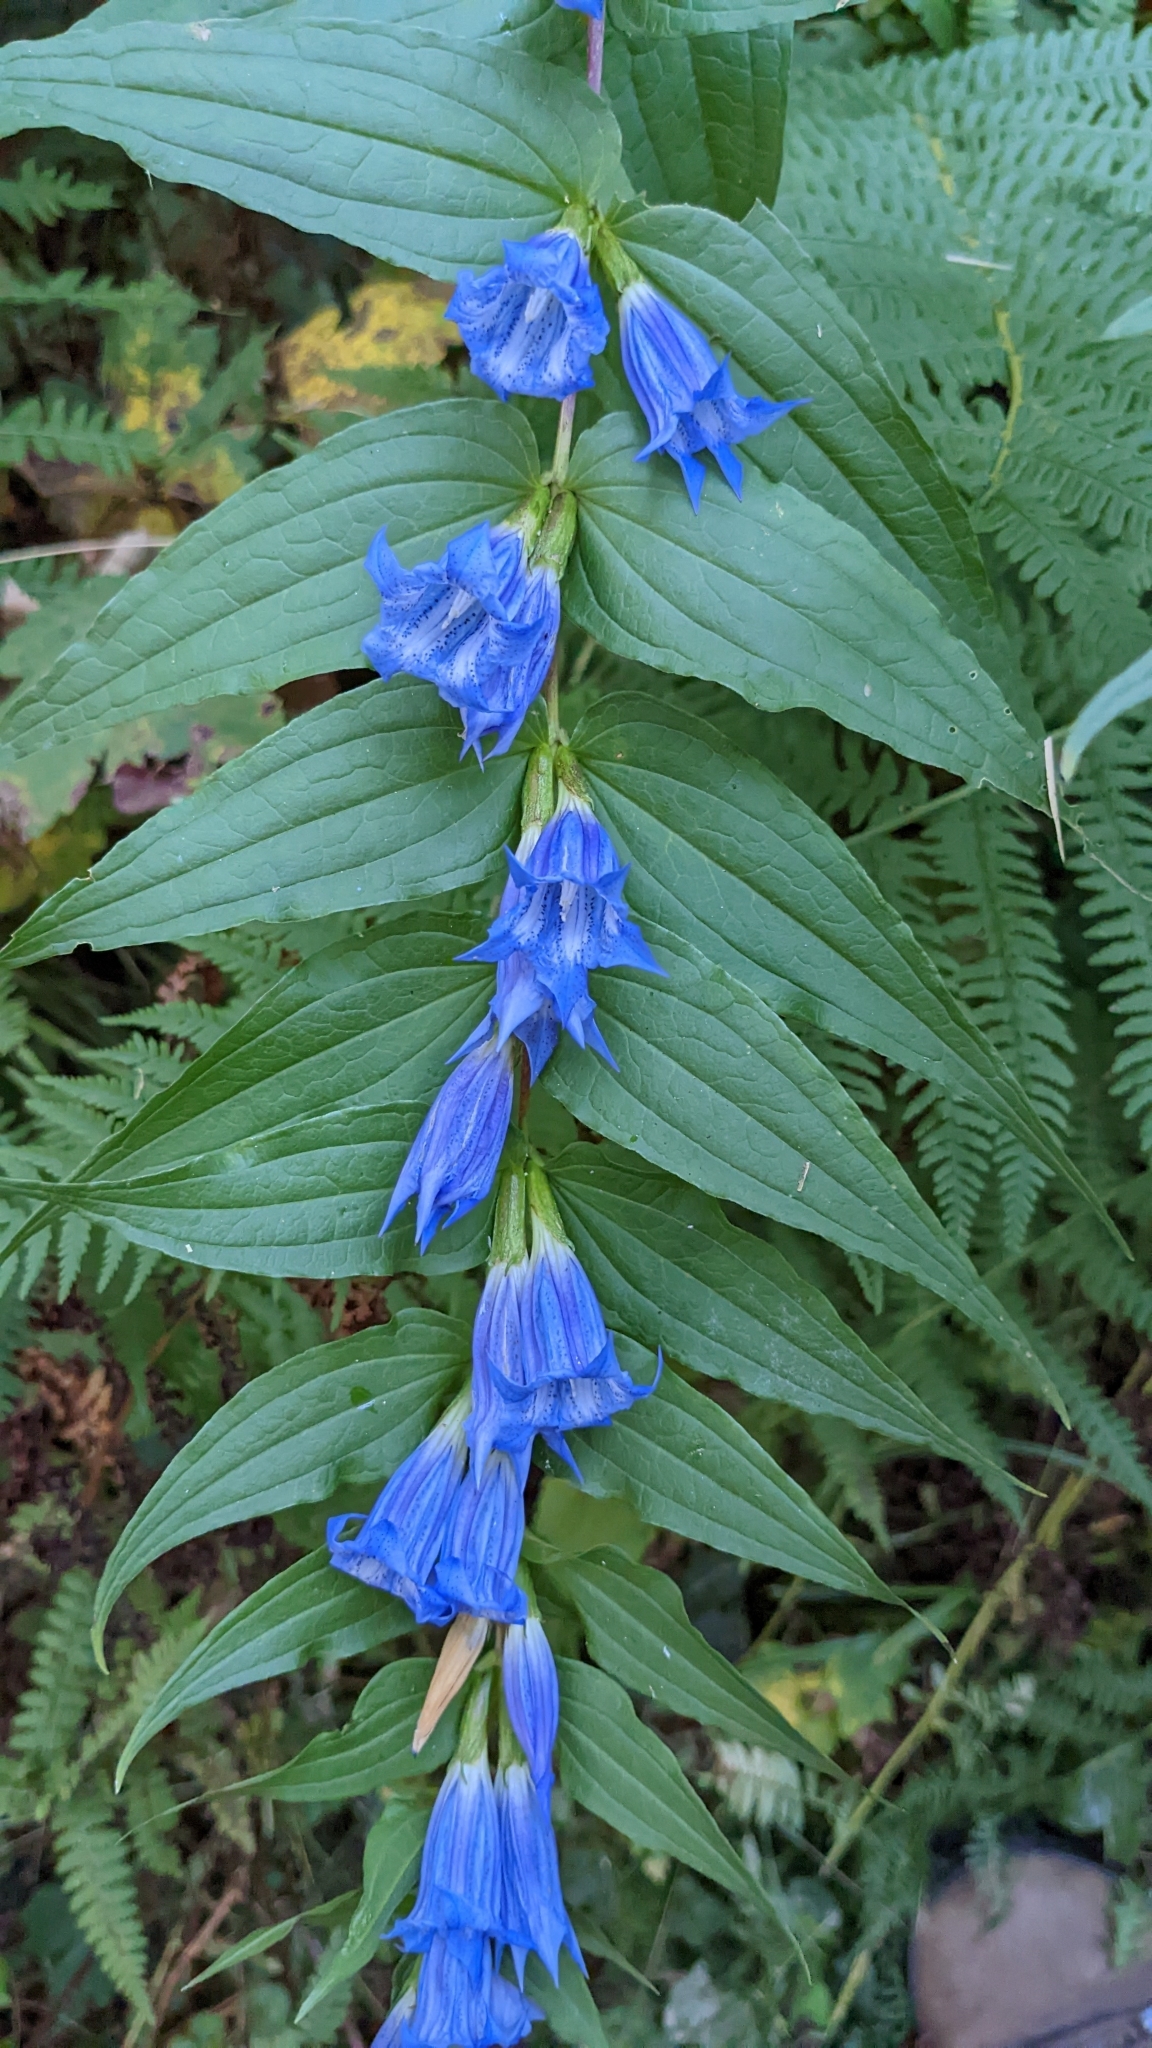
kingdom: Plantae
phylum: Tracheophyta
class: Magnoliopsida
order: Gentianales
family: Gentianaceae
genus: Gentiana
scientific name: Gentiana asclepiadea
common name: Willow gentian
